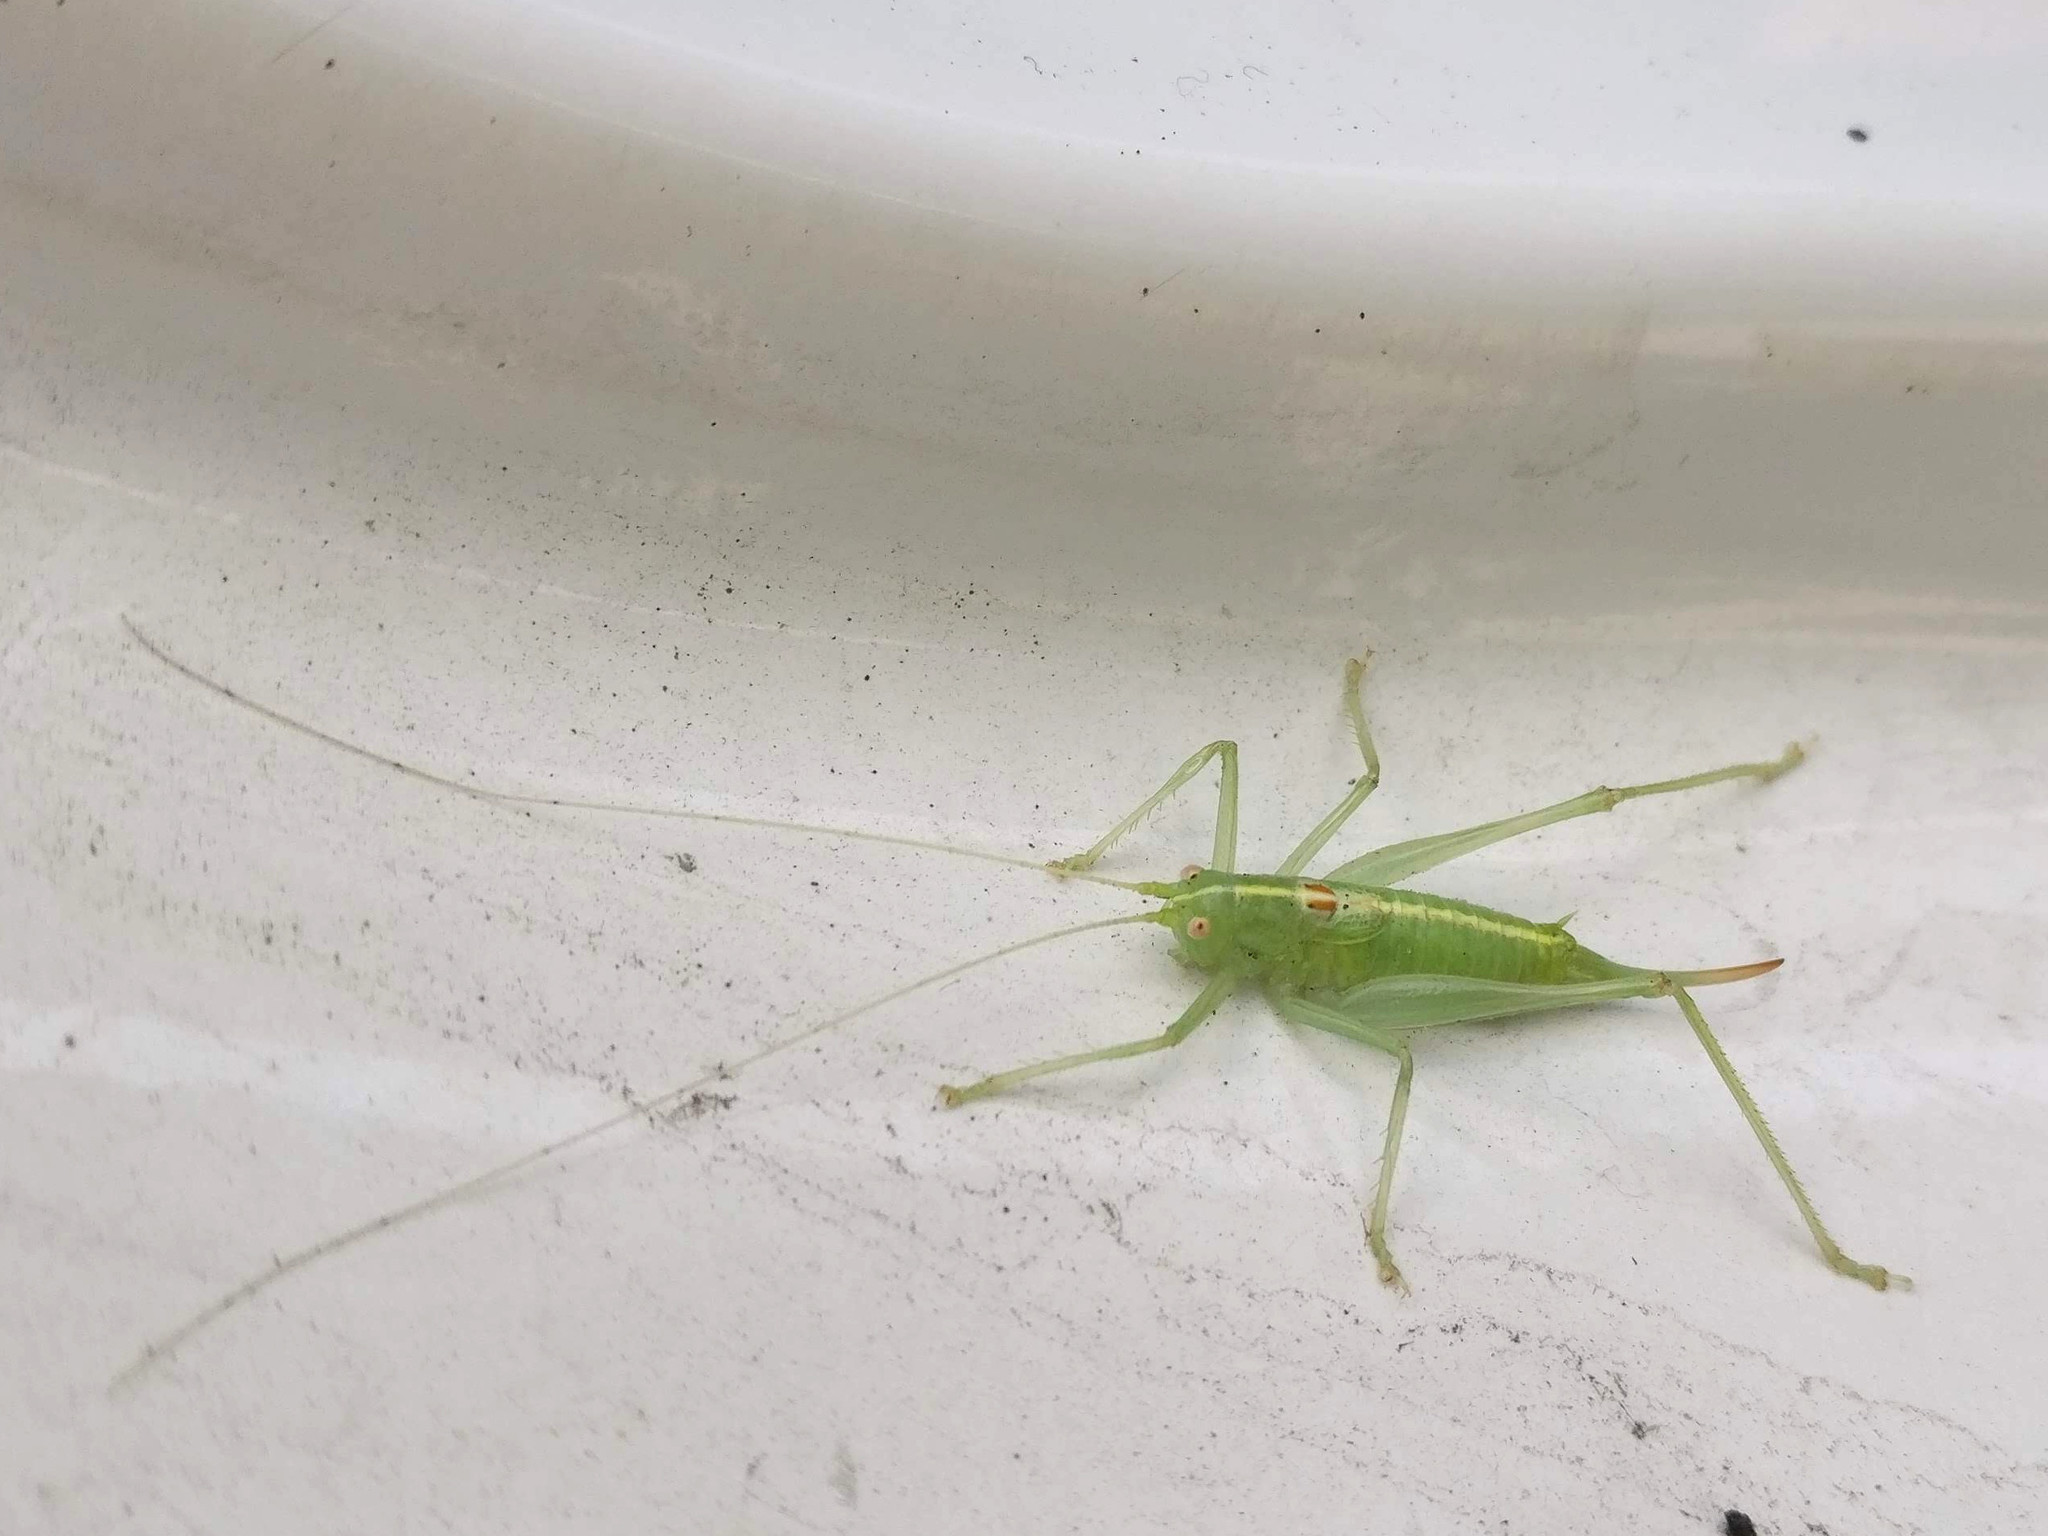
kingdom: Animalia
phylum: Arthropoda
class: Insecta
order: Orthoptera
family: Tettigoniidae
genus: Meconema
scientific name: Meconema meridionale
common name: Southern oak bush-cricket
